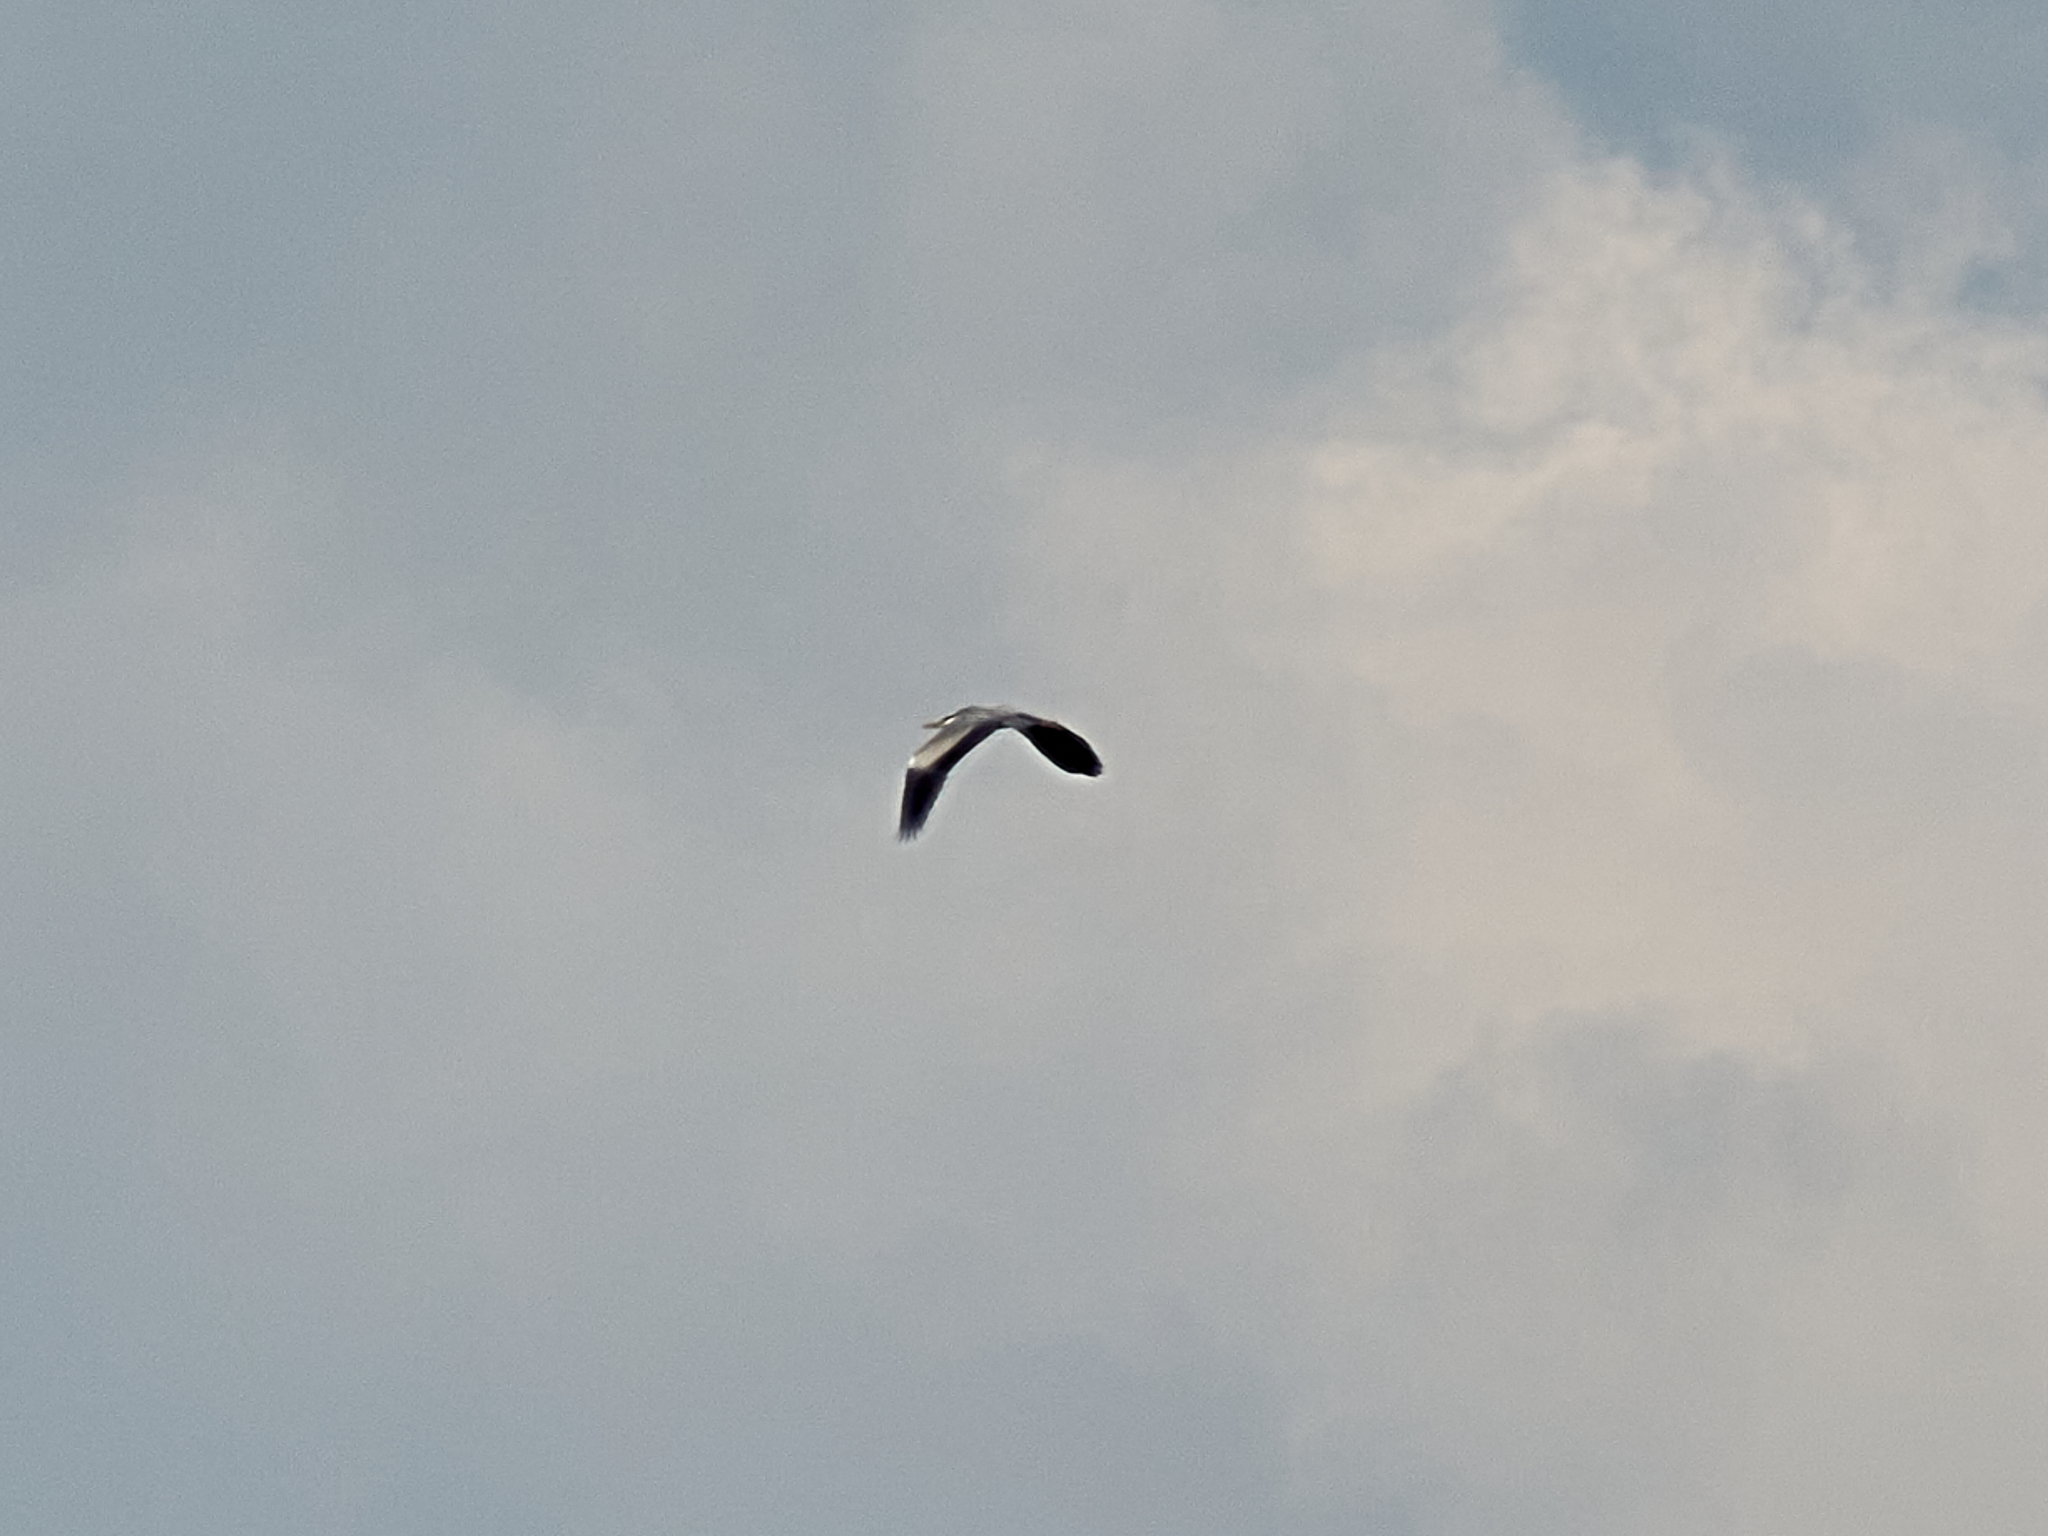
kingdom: Animalia
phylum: Chordata
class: Aves
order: Pelecaniformes
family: Ardeidae
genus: Ardea
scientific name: Ardea cinerea
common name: Grey heron
